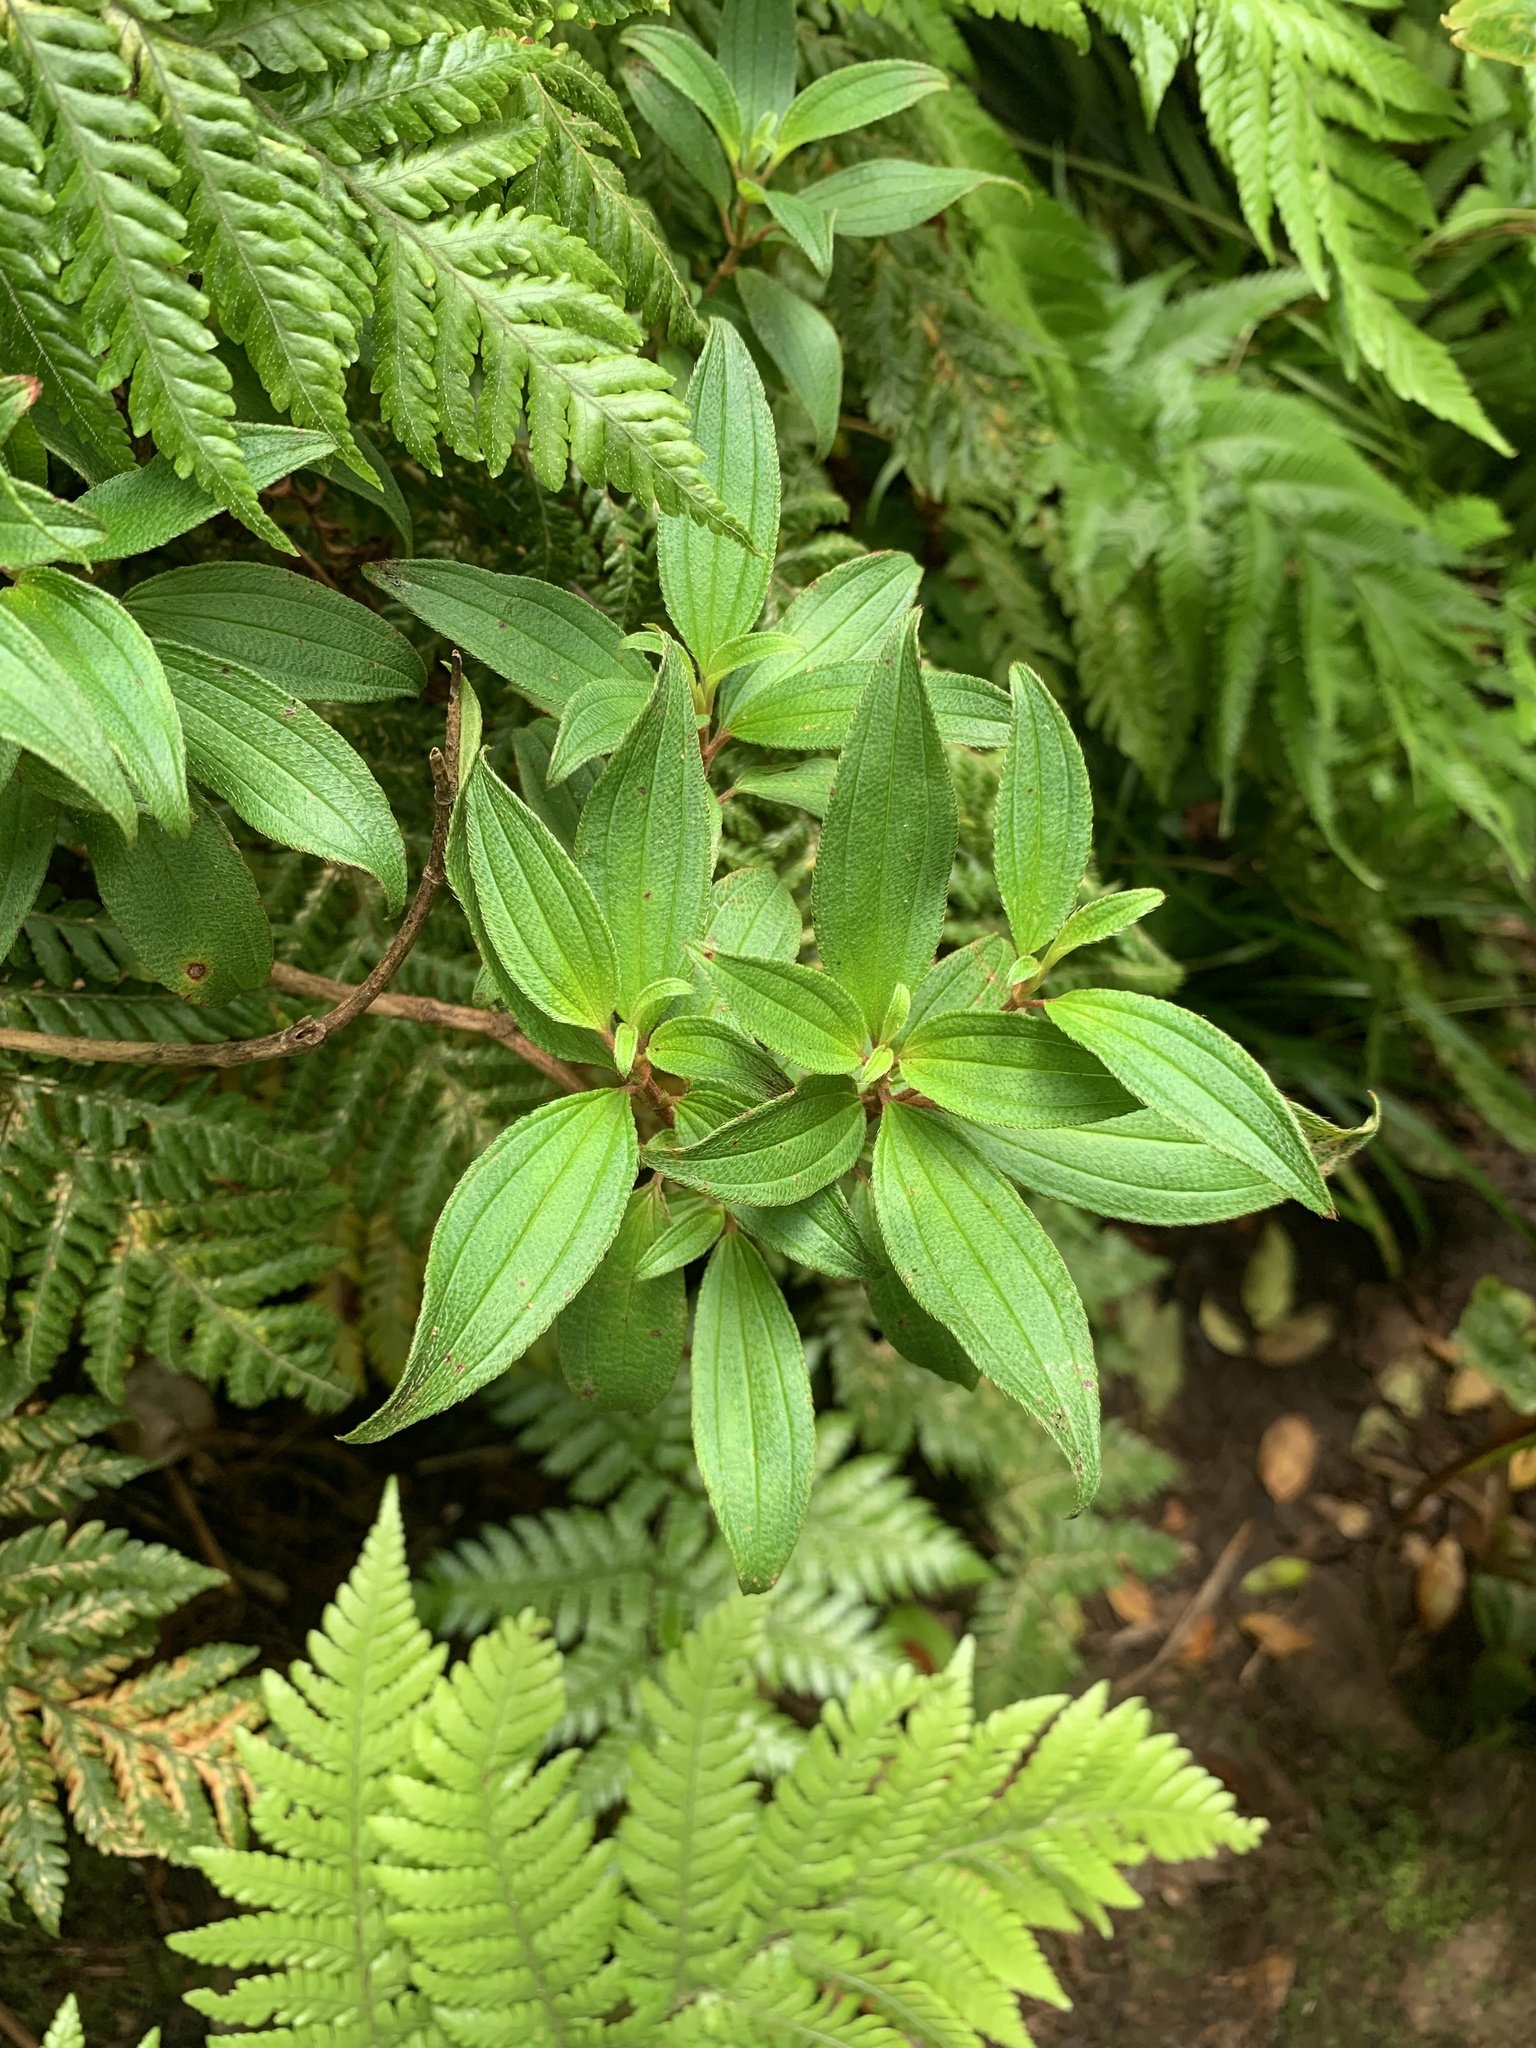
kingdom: Plantae
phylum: Tracheophyta
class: Magnoliopsida
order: Myrtales
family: Melastomataceae
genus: Melastoma
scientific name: Melastoma pentapetalum
